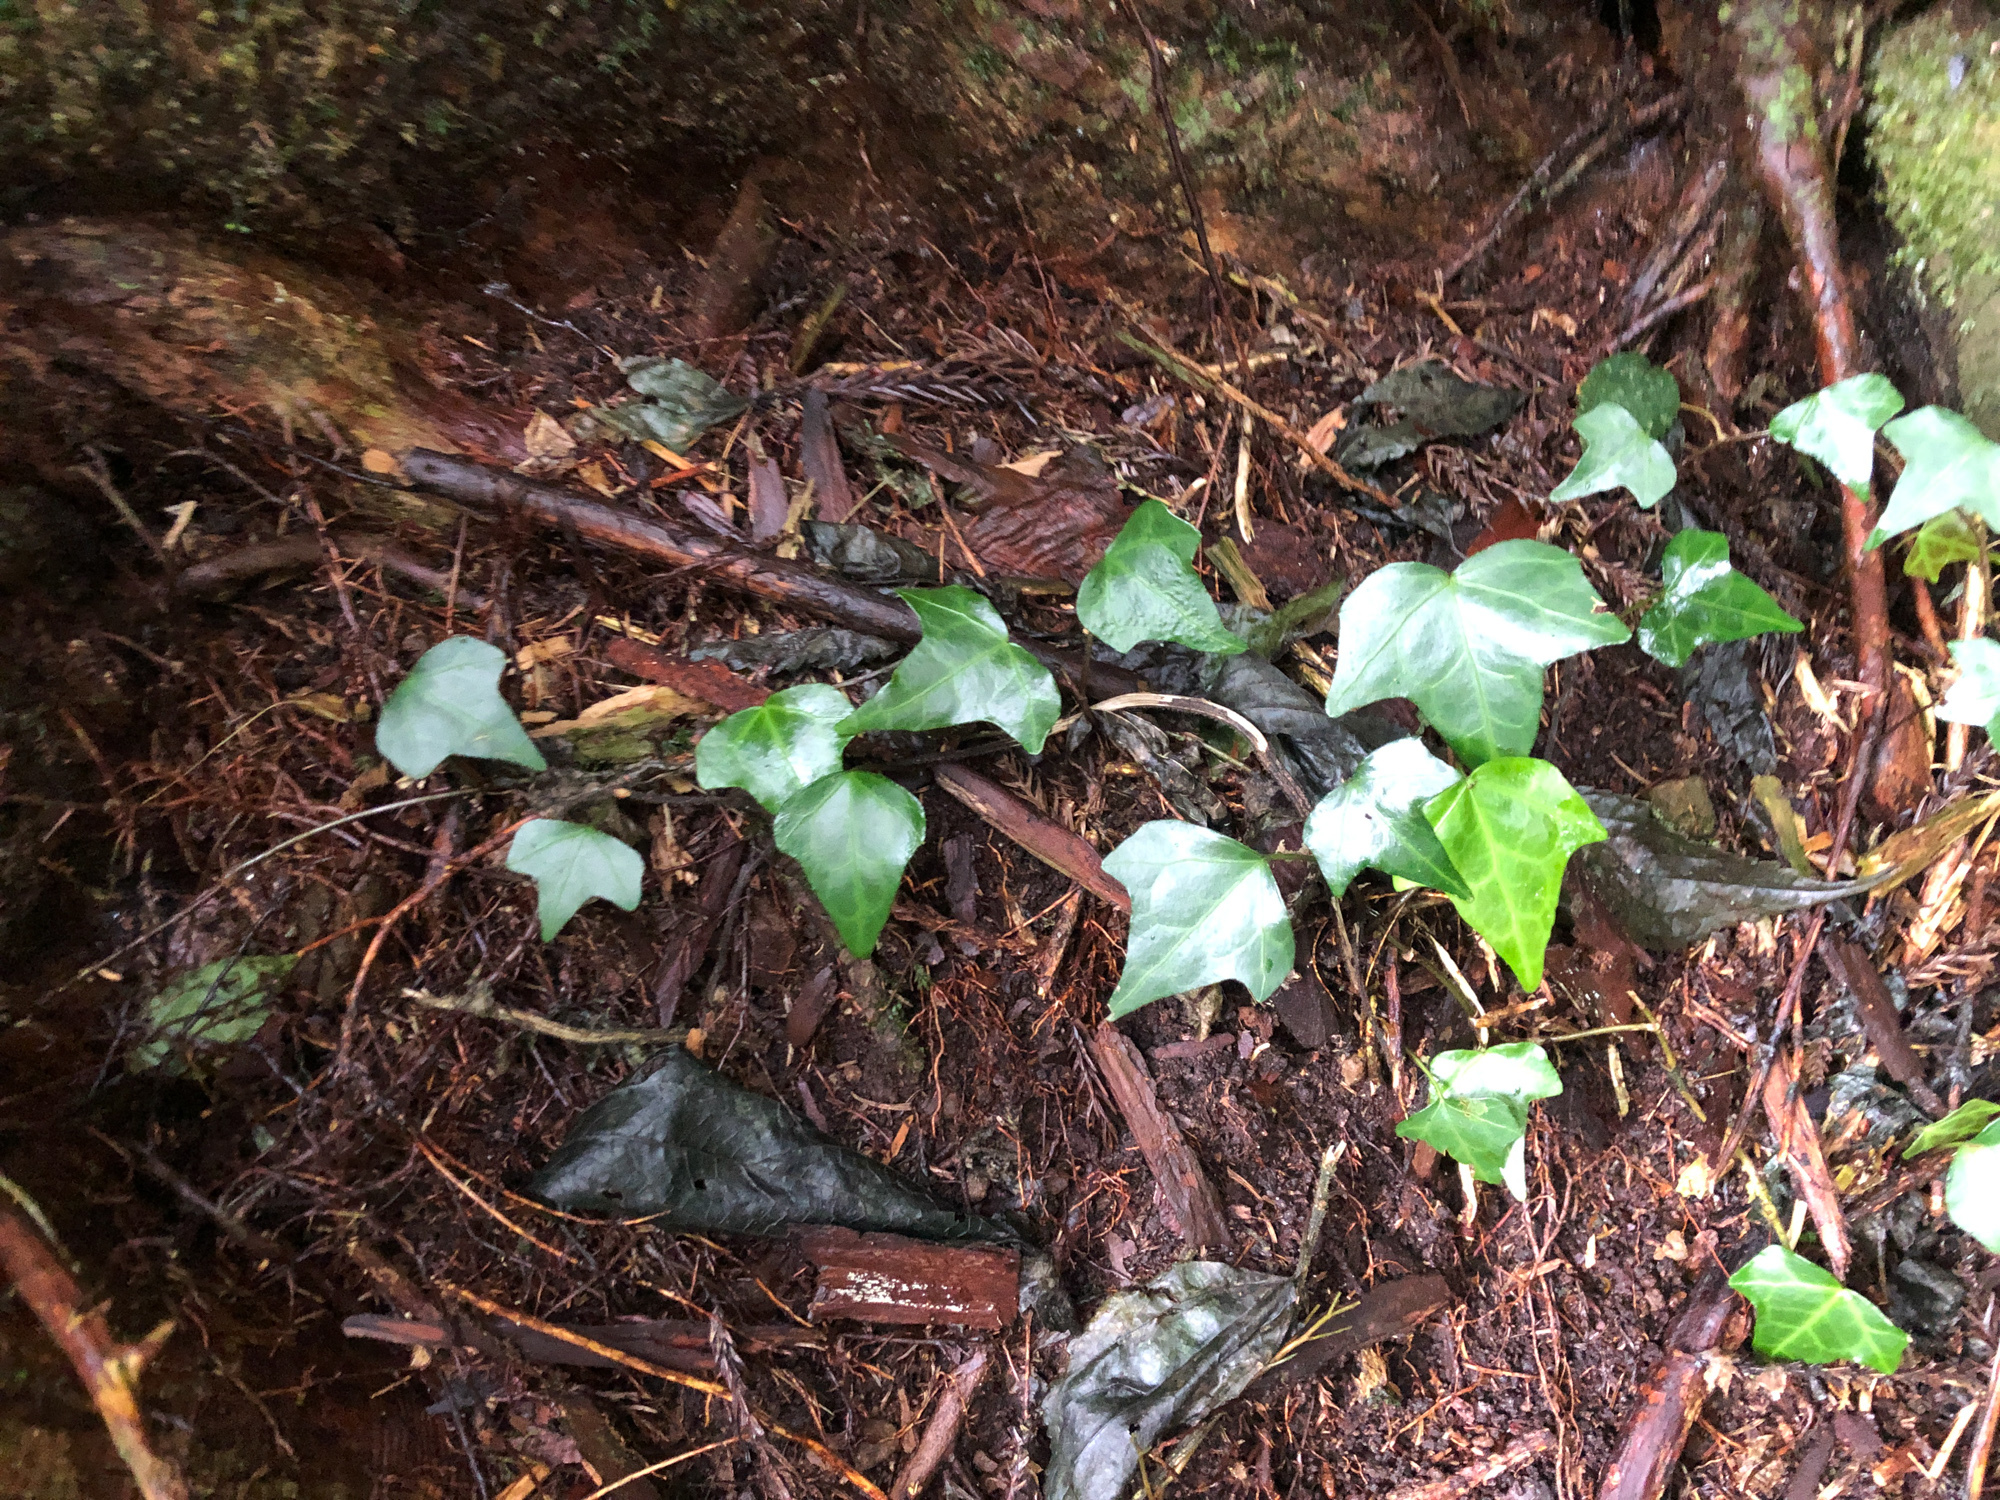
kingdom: Plantae
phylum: Tracheophyta
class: Magnoliopsida
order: Apiales
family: Araliaceae
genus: Hedera
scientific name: Hedera rhombea
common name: Japanese ivy
